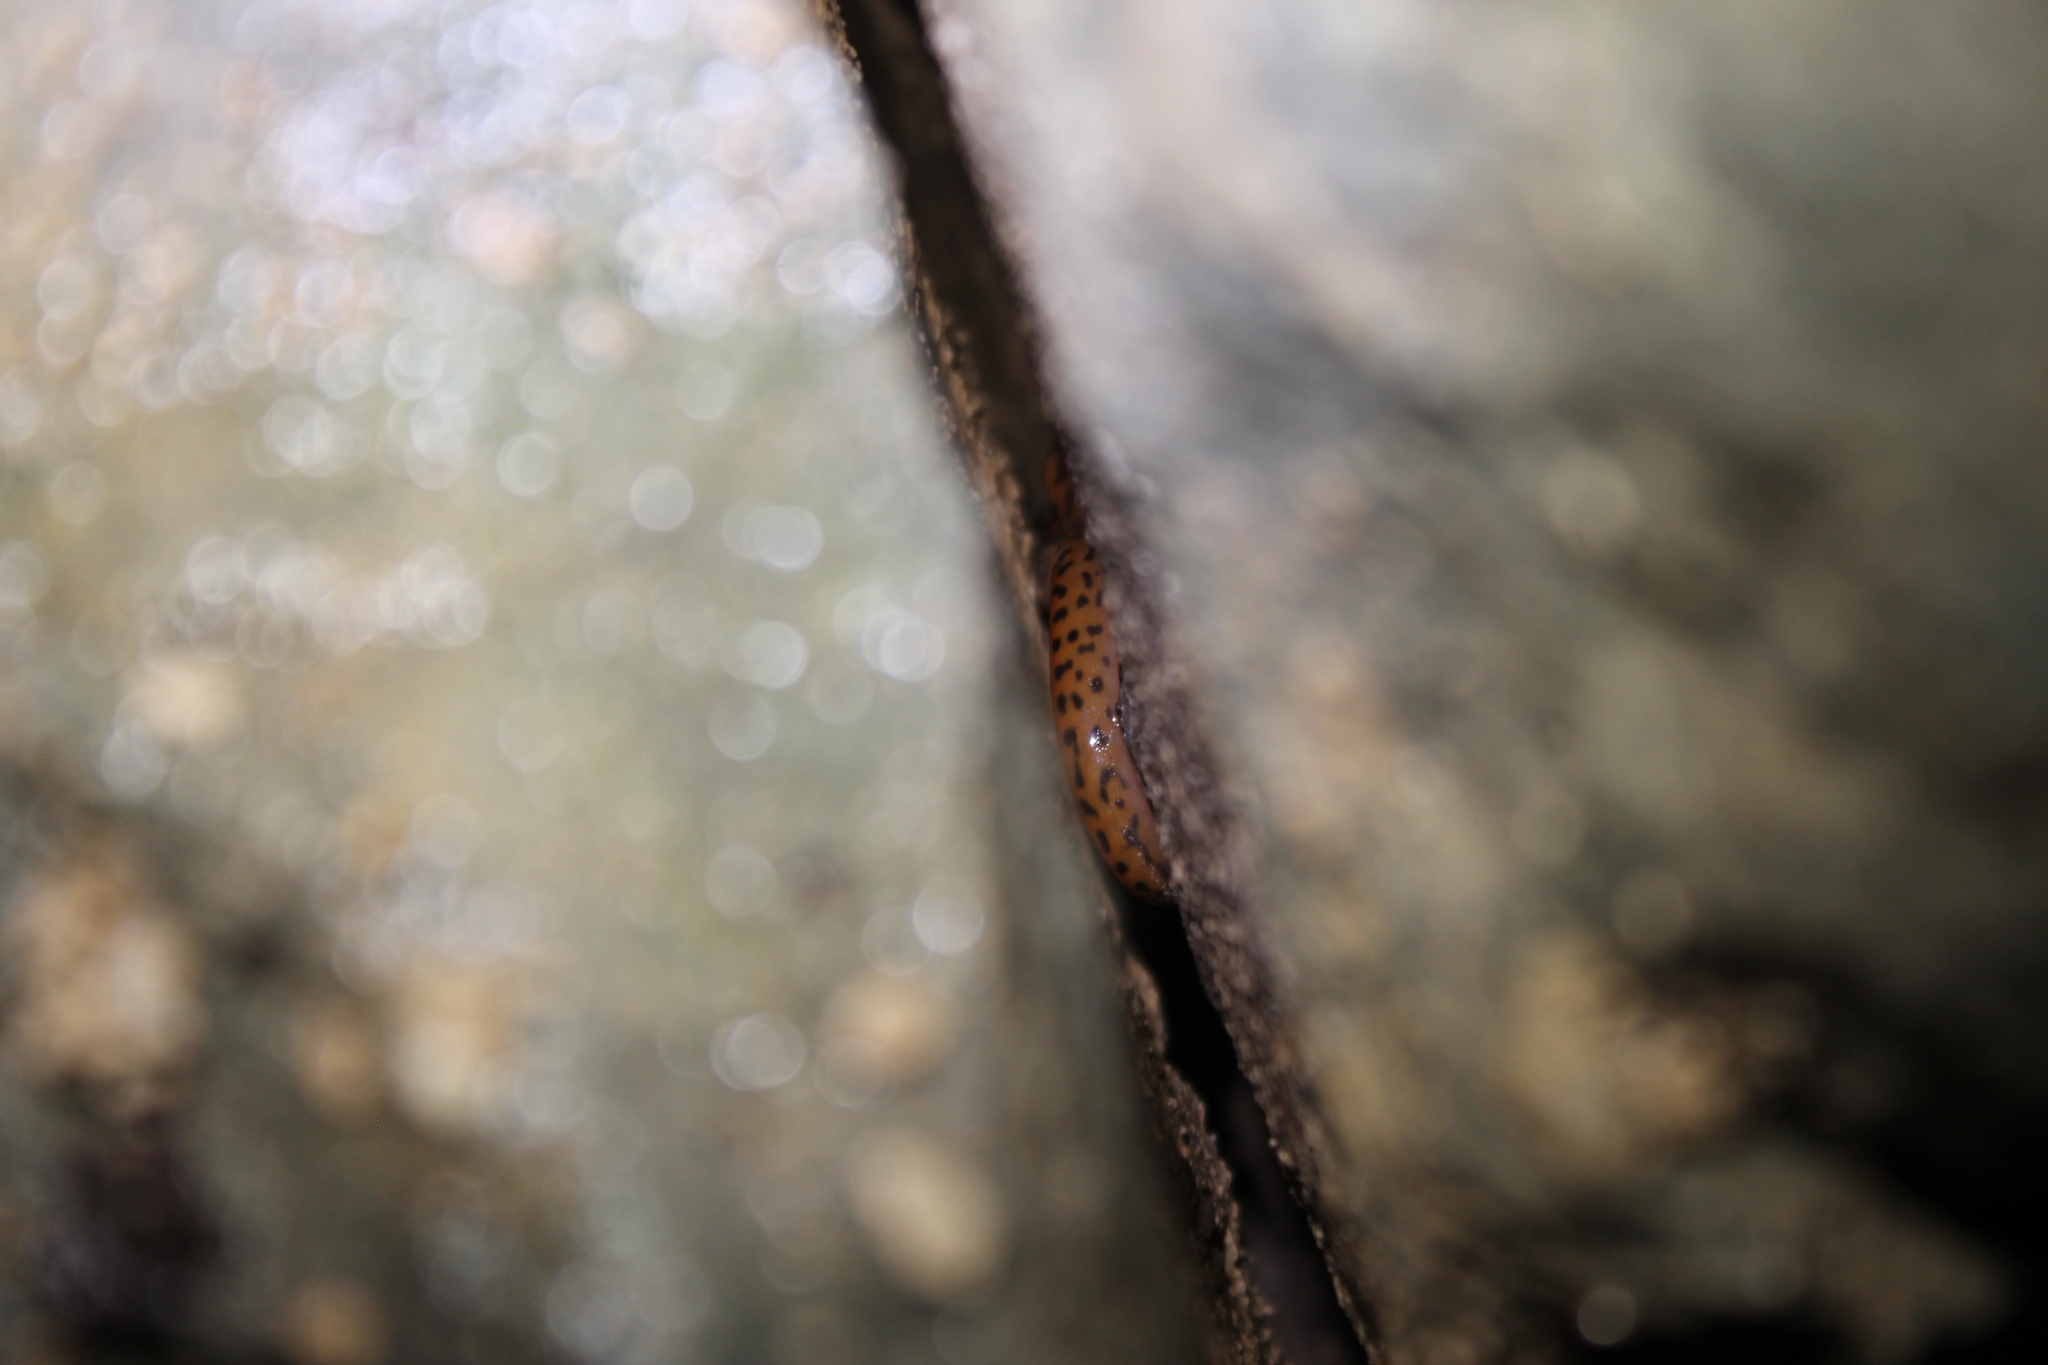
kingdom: Animalia
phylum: Chordata
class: Amphibia
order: Caudata
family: Plethodontidae
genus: Eurycea
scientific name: Eurycea lucifuga
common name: Cave salamander
